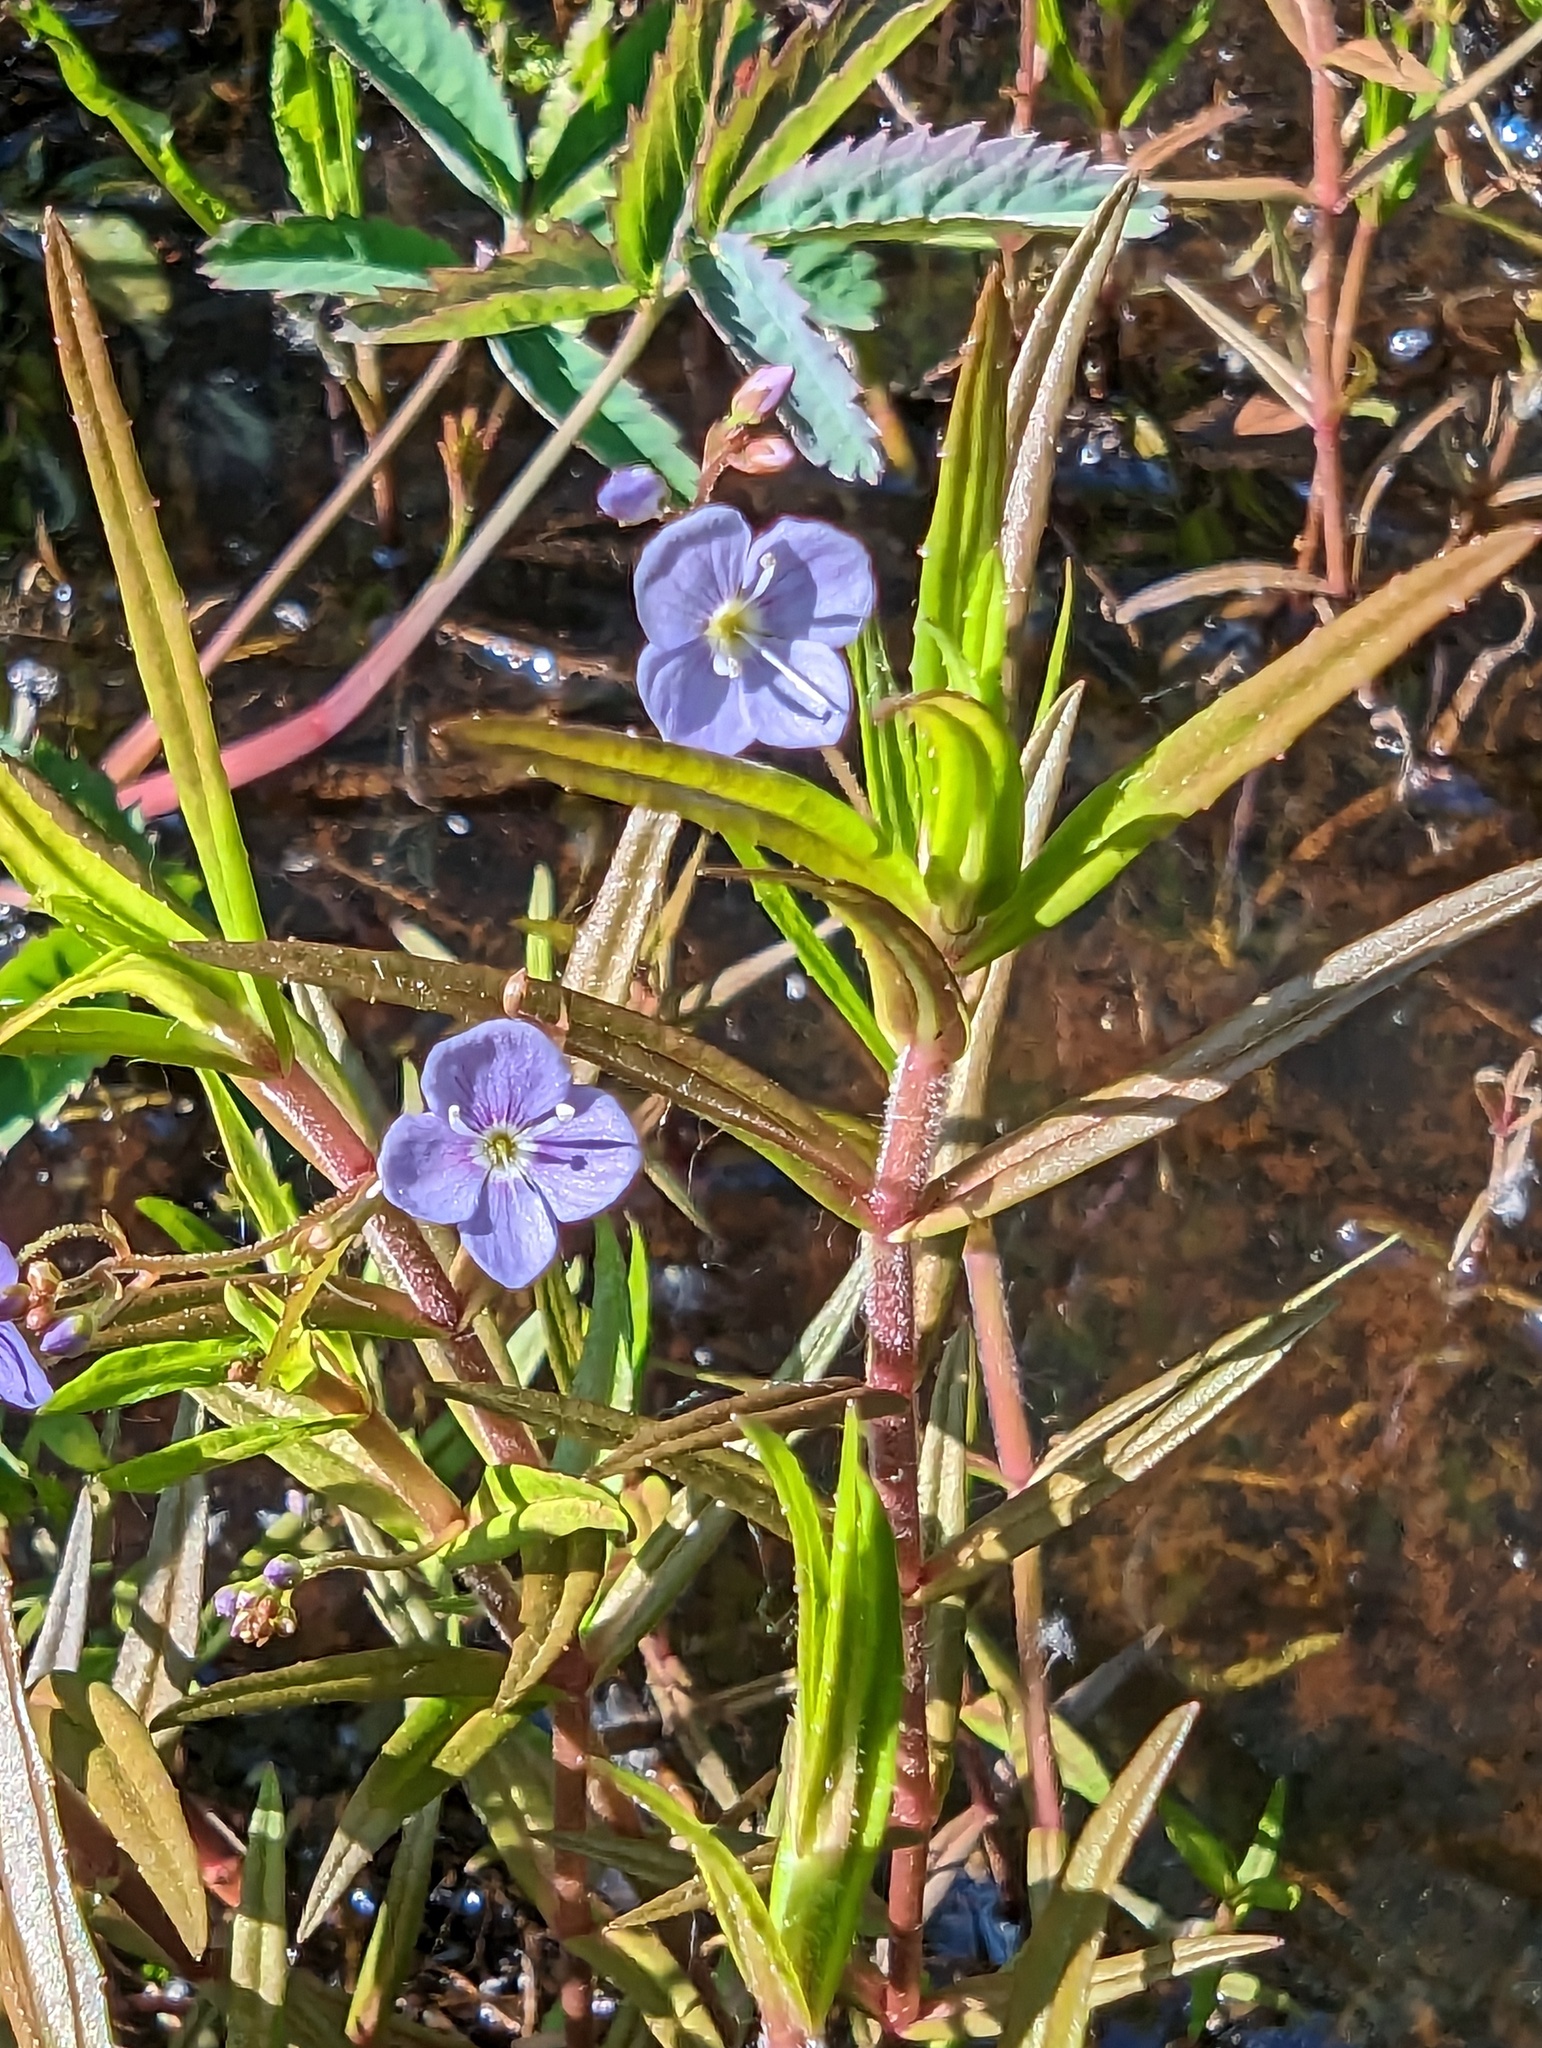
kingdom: Plantae
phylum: Tracheophyta
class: Magnoliopsida
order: Lamiales
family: Plantaginaceae
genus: Veronica
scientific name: Veronica scutellata
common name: Marsh speedwell
